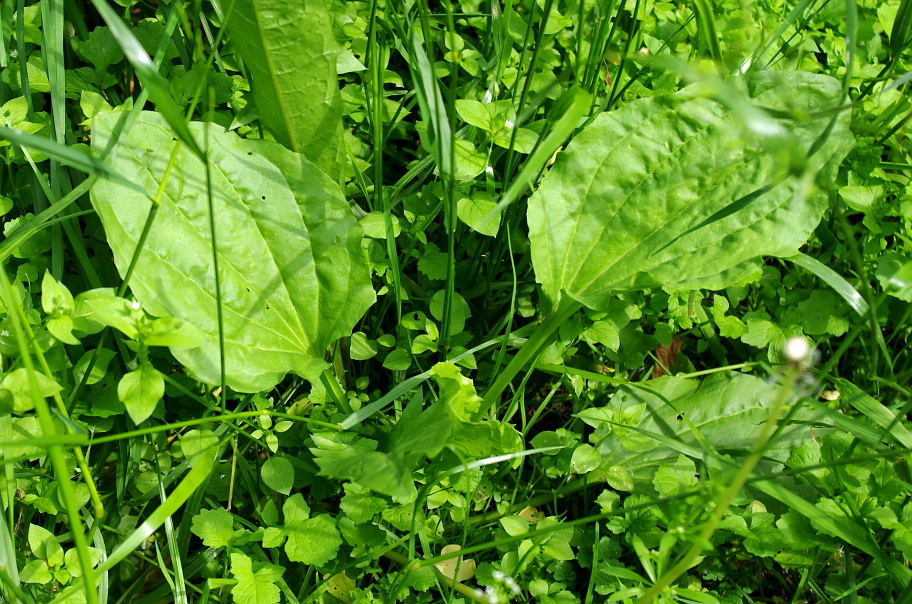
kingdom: Plantae
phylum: Tracheophyta
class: Magnoliopsida
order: Lamiales
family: Plantaginaceae
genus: Plantago
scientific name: Plantago major
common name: Common plantain
